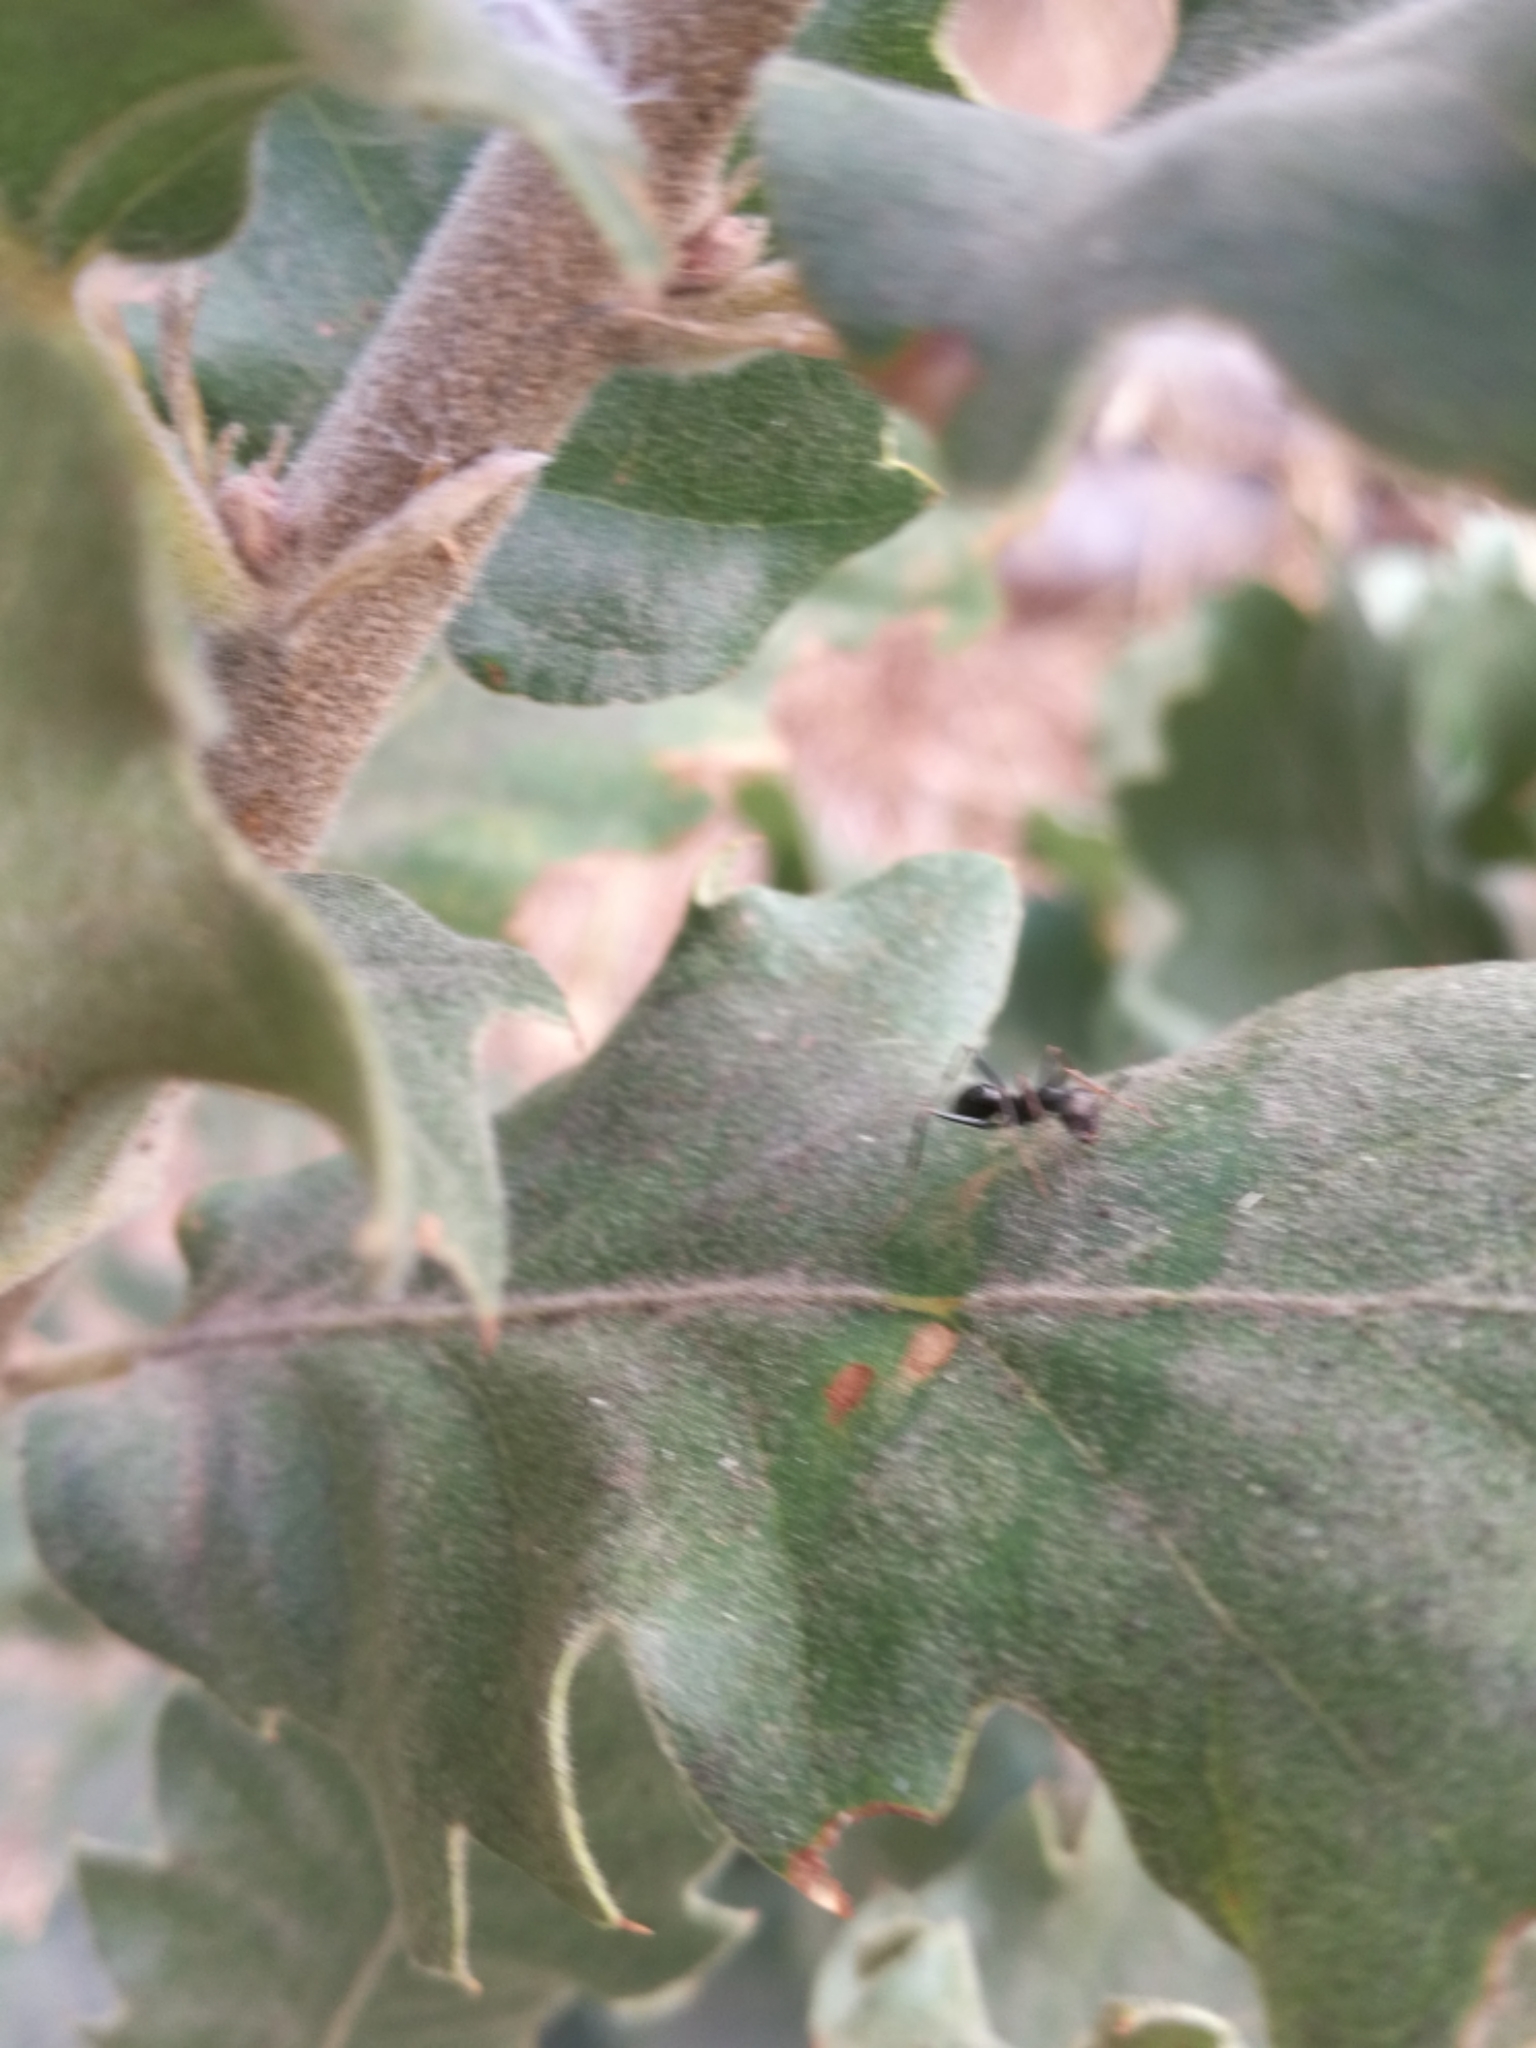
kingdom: Animalia
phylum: Arthropoda
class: Insecta
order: Hymenoptera
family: Formicidae
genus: Cataglyphis
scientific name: Cataglyphis italicus
